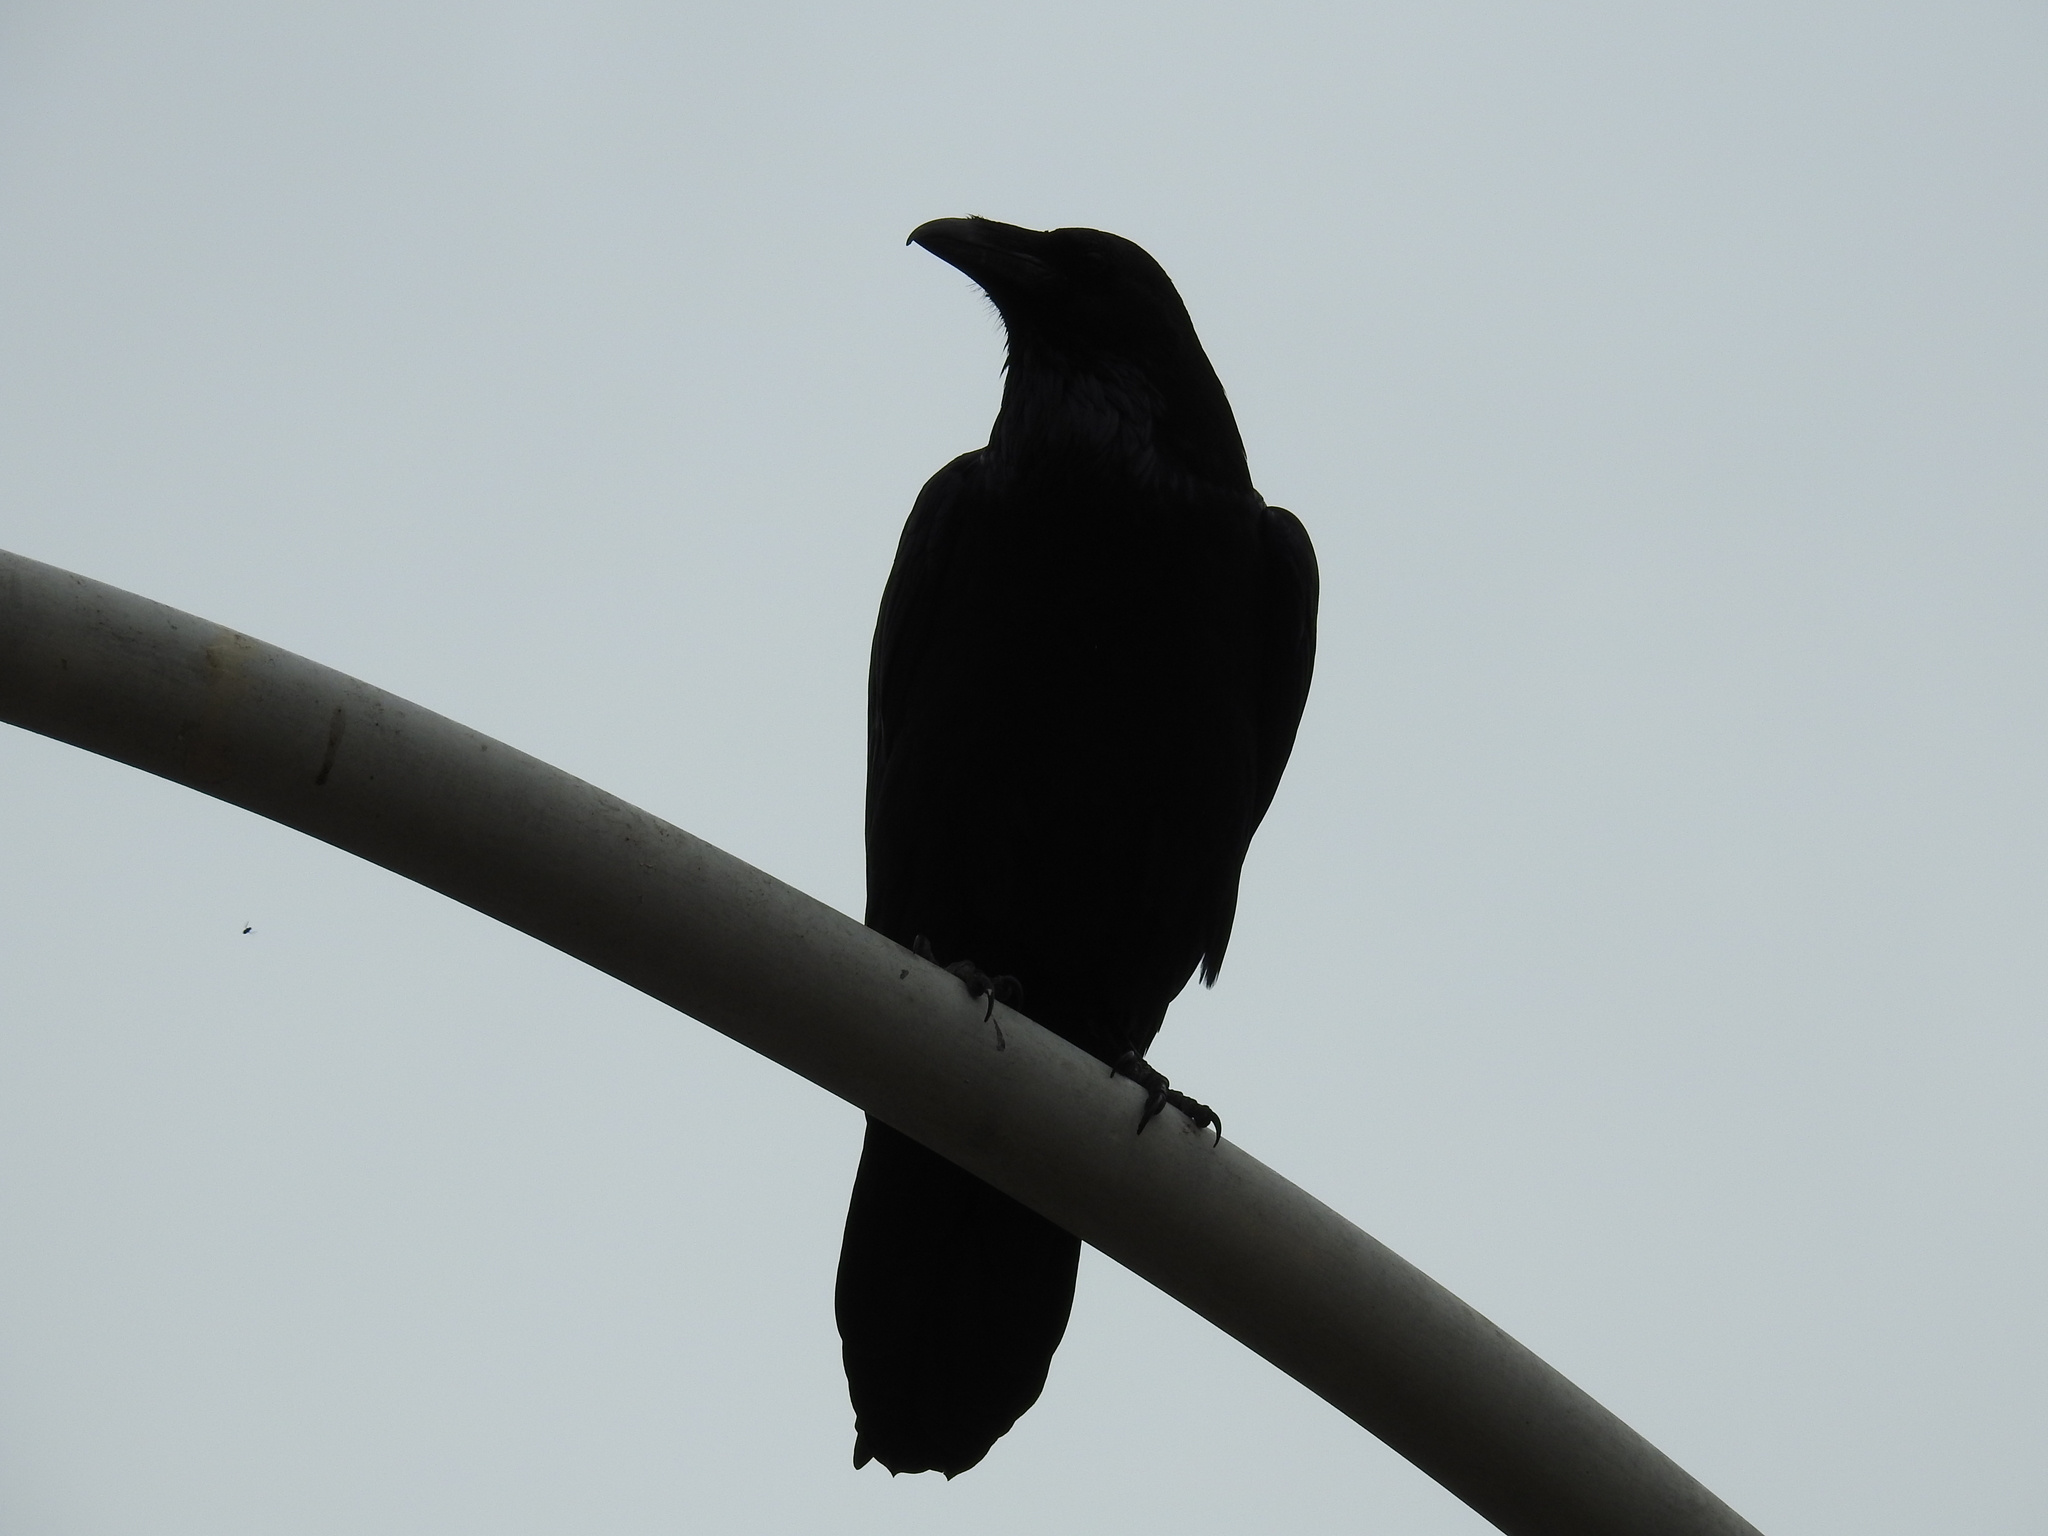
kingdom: Animalia
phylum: Chordata
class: Aves
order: Passeriformes
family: Corvidae
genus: Corvus
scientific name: Corvus corax
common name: Common raven
